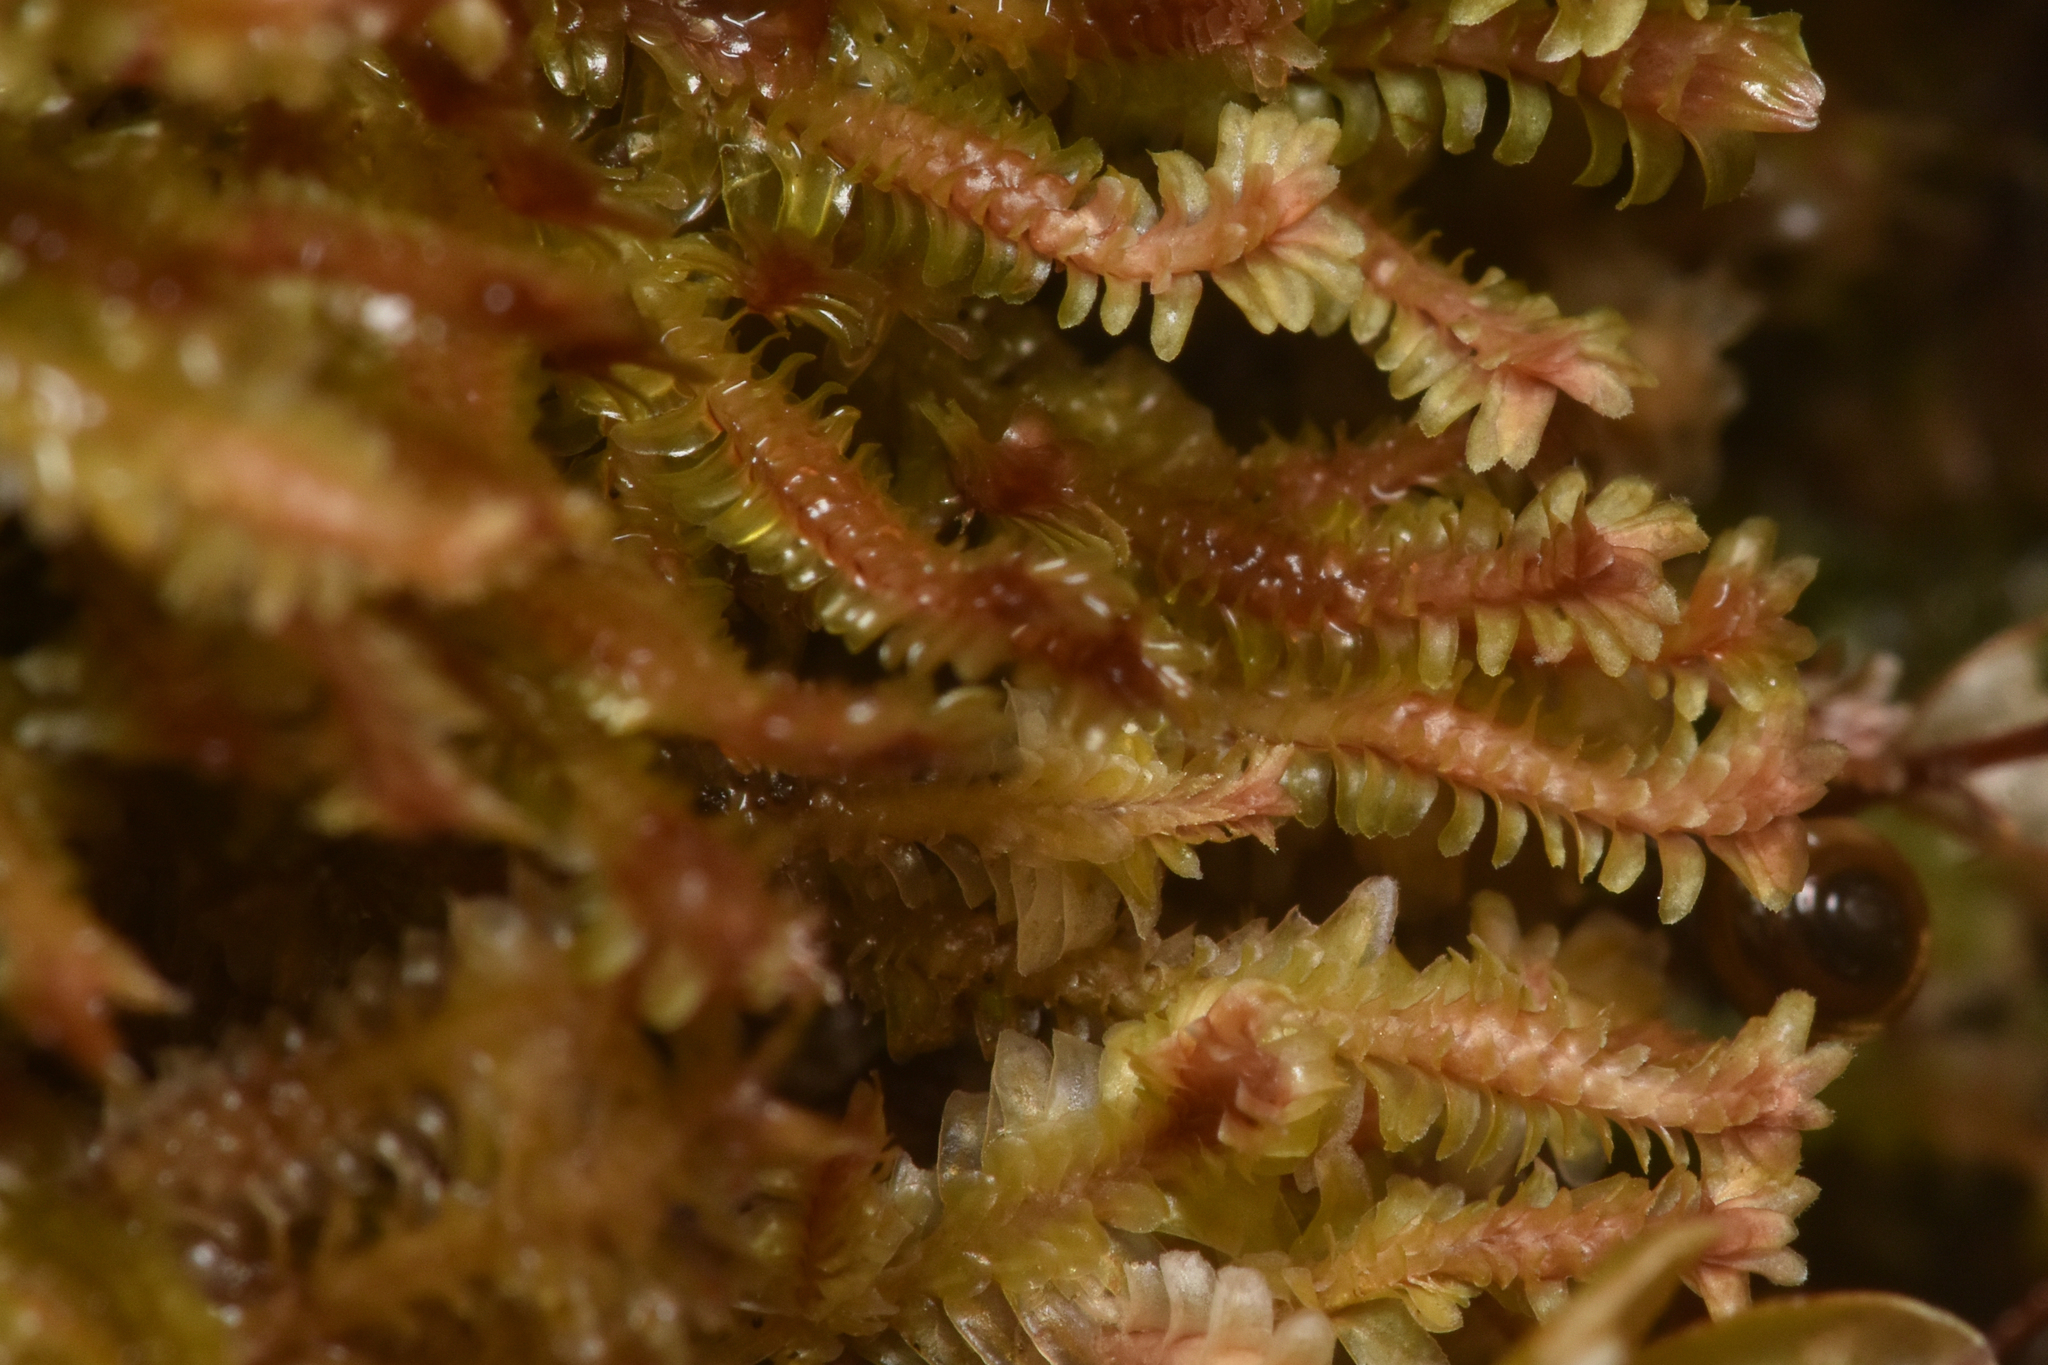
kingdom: Plantae
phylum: Marchantiophyta
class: Jungermanniopsida
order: Jungermanniales
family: Scapaniaceae
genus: Diplophyllum
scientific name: Diplophyllum albicans
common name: White earwort
